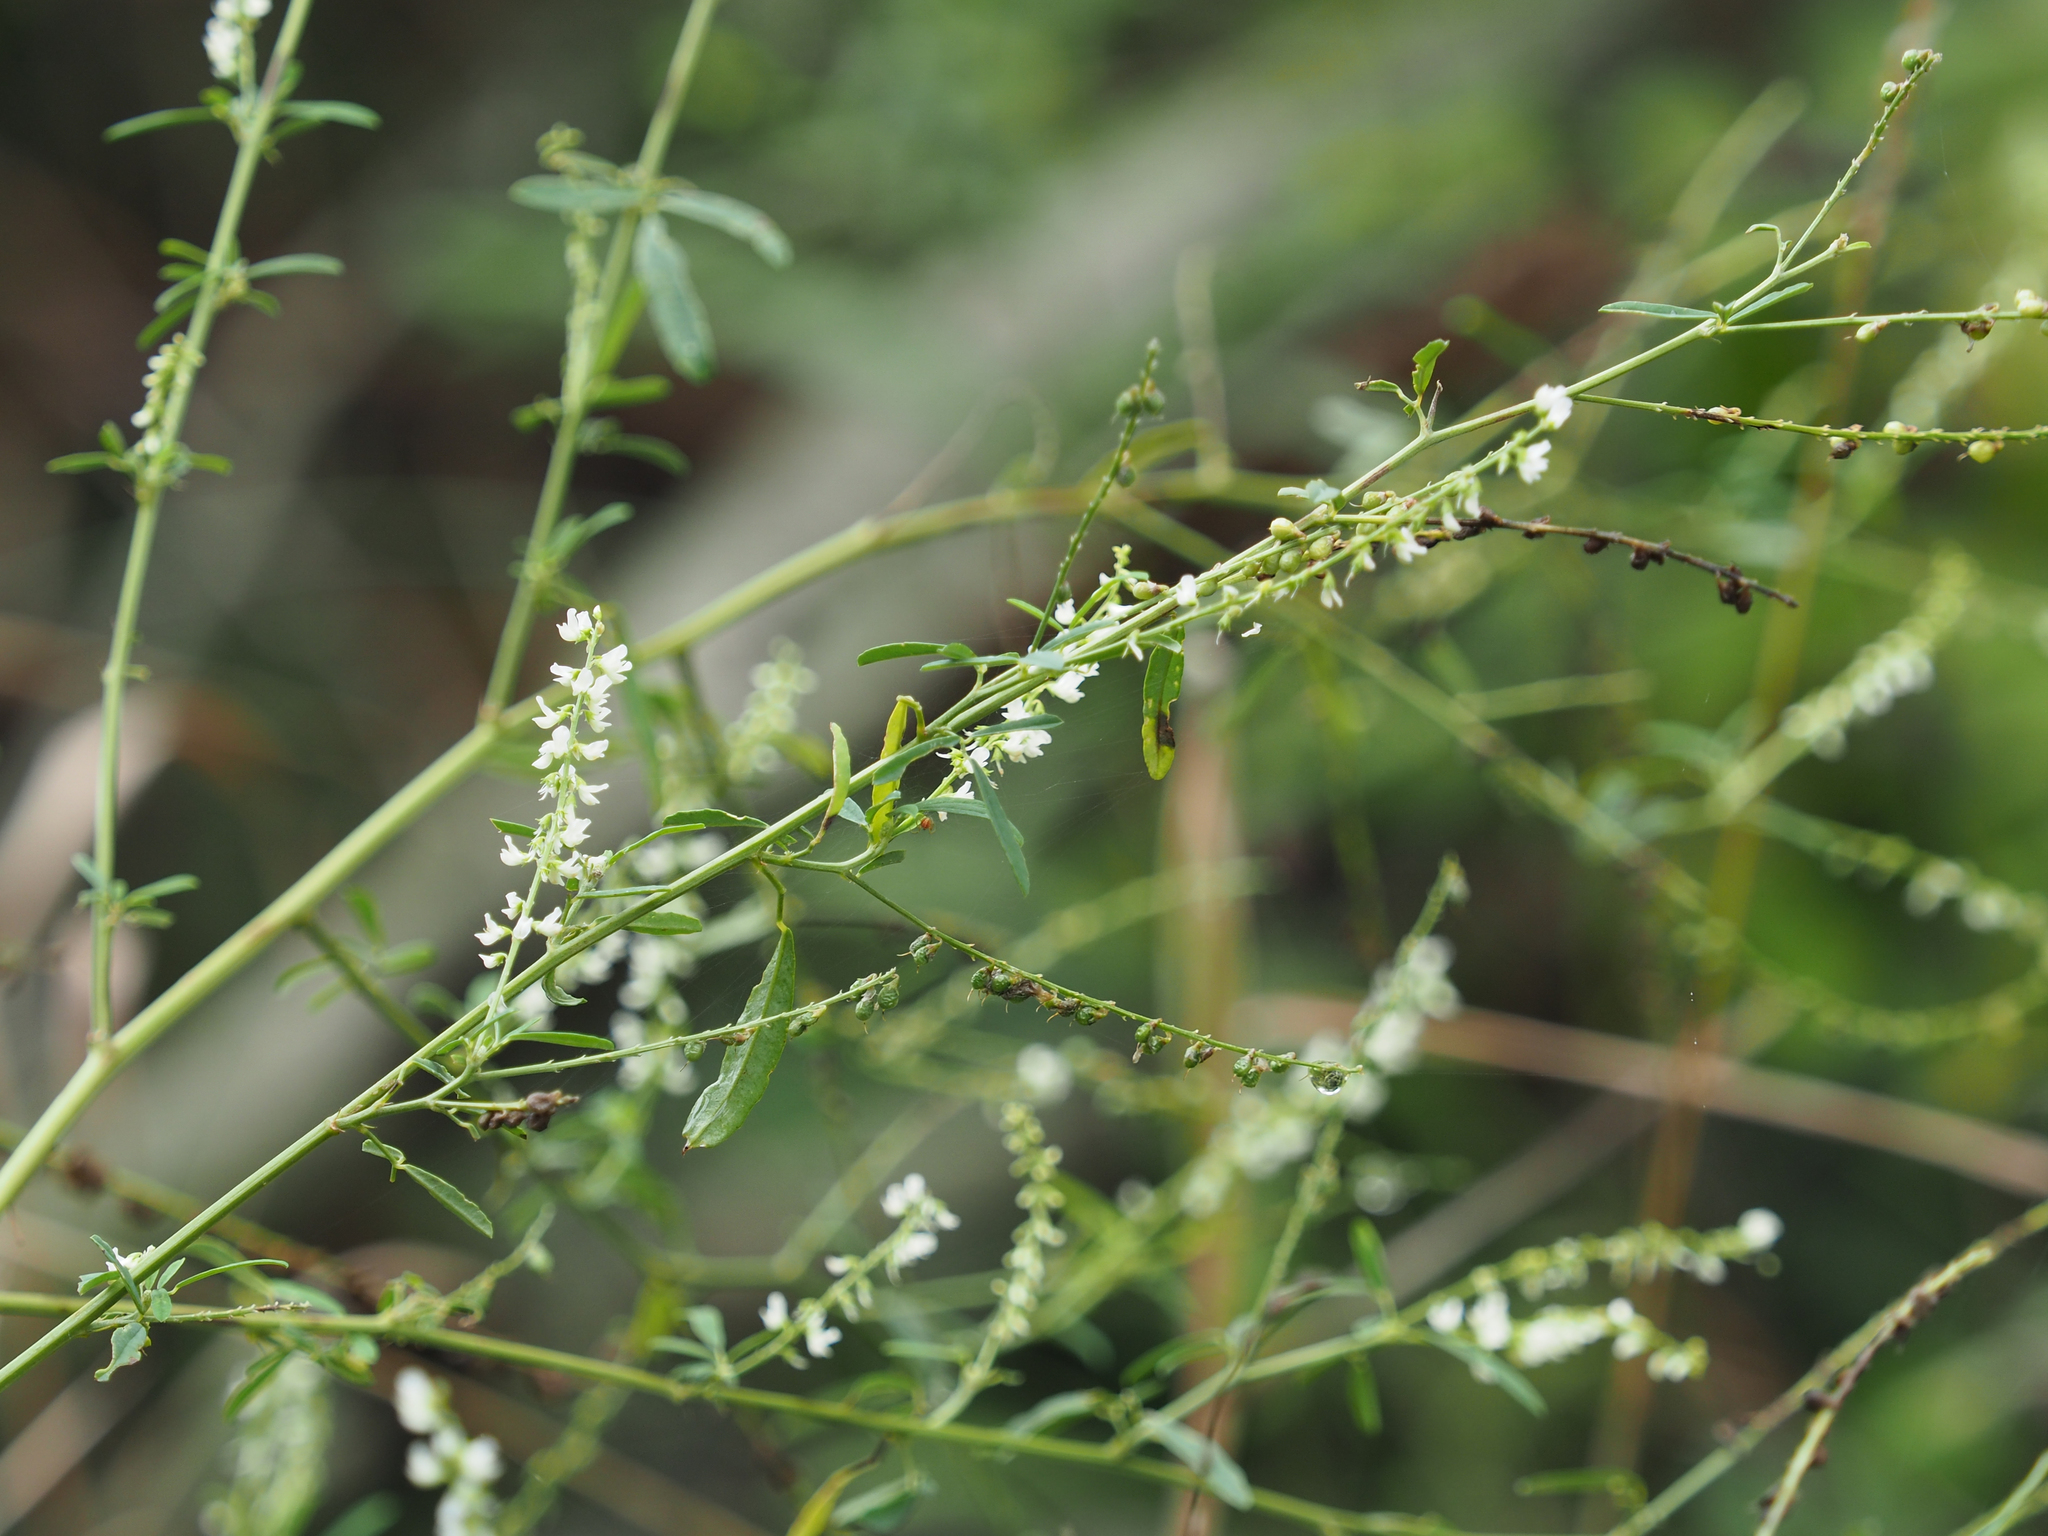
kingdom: Plantae
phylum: Tracheophyta
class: Magnoliopsida
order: Fabales
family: Fabaceae
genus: Melilotus
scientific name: Melilotus albus
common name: White melilot
